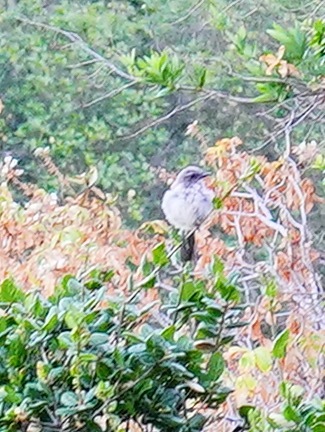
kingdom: Animalia
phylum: Chordata
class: Aves
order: Passeriformes
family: Corvidae
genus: Aphelocoma
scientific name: Aphelocoma californica
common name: California scrub-jay
